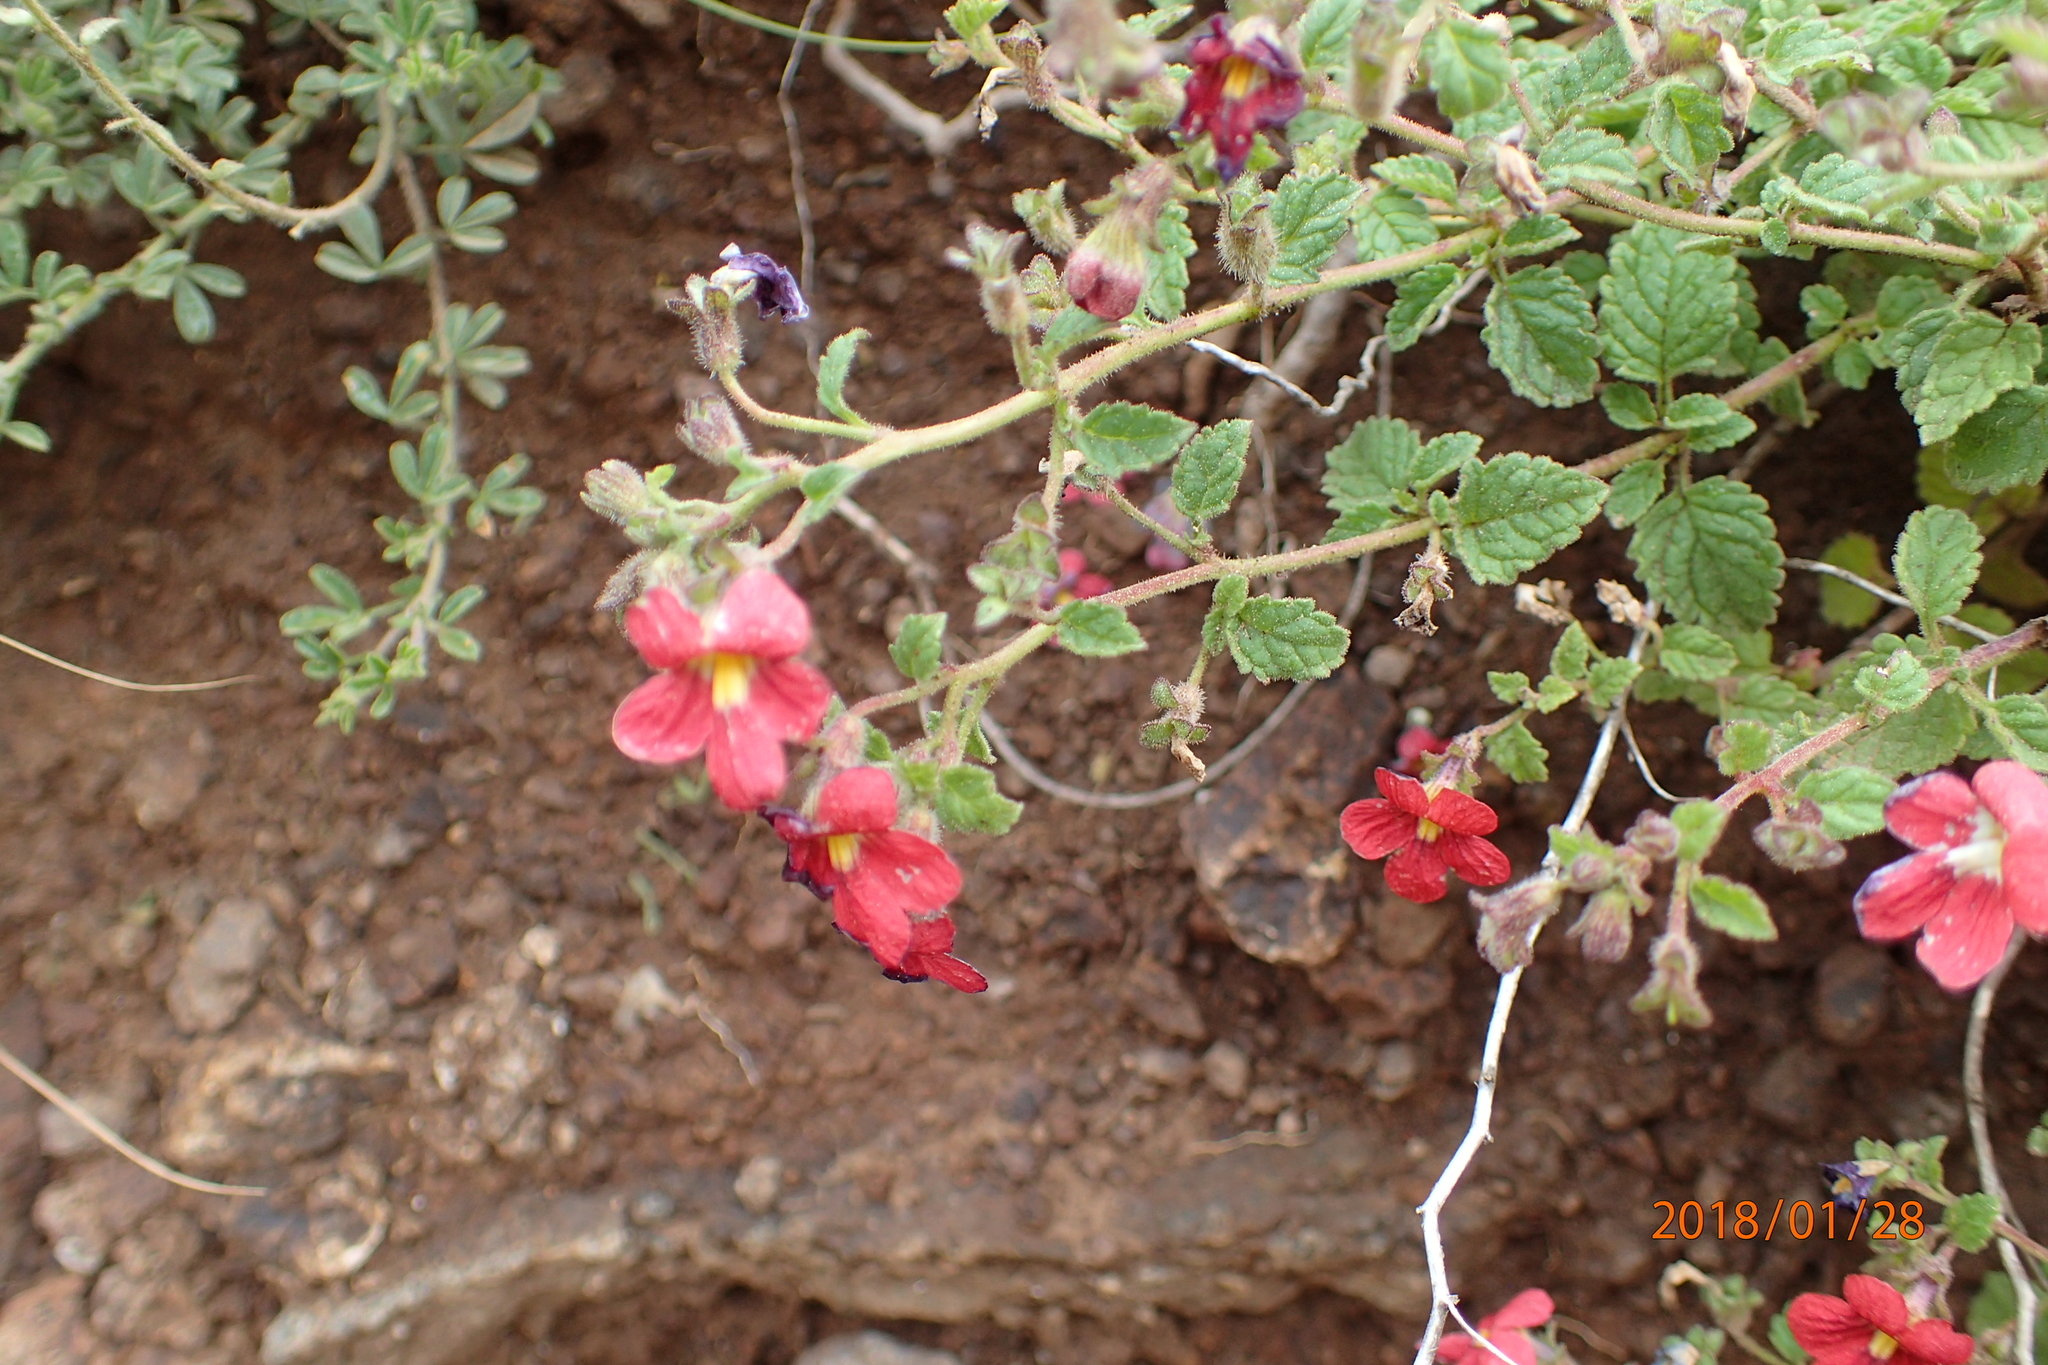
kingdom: Plantae
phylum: Tracheophyta
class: Magnoliopsida
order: Lamiales
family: Scrophulariaceae
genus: Jamesbrittenia
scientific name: Jamesbrittenia breviflora
